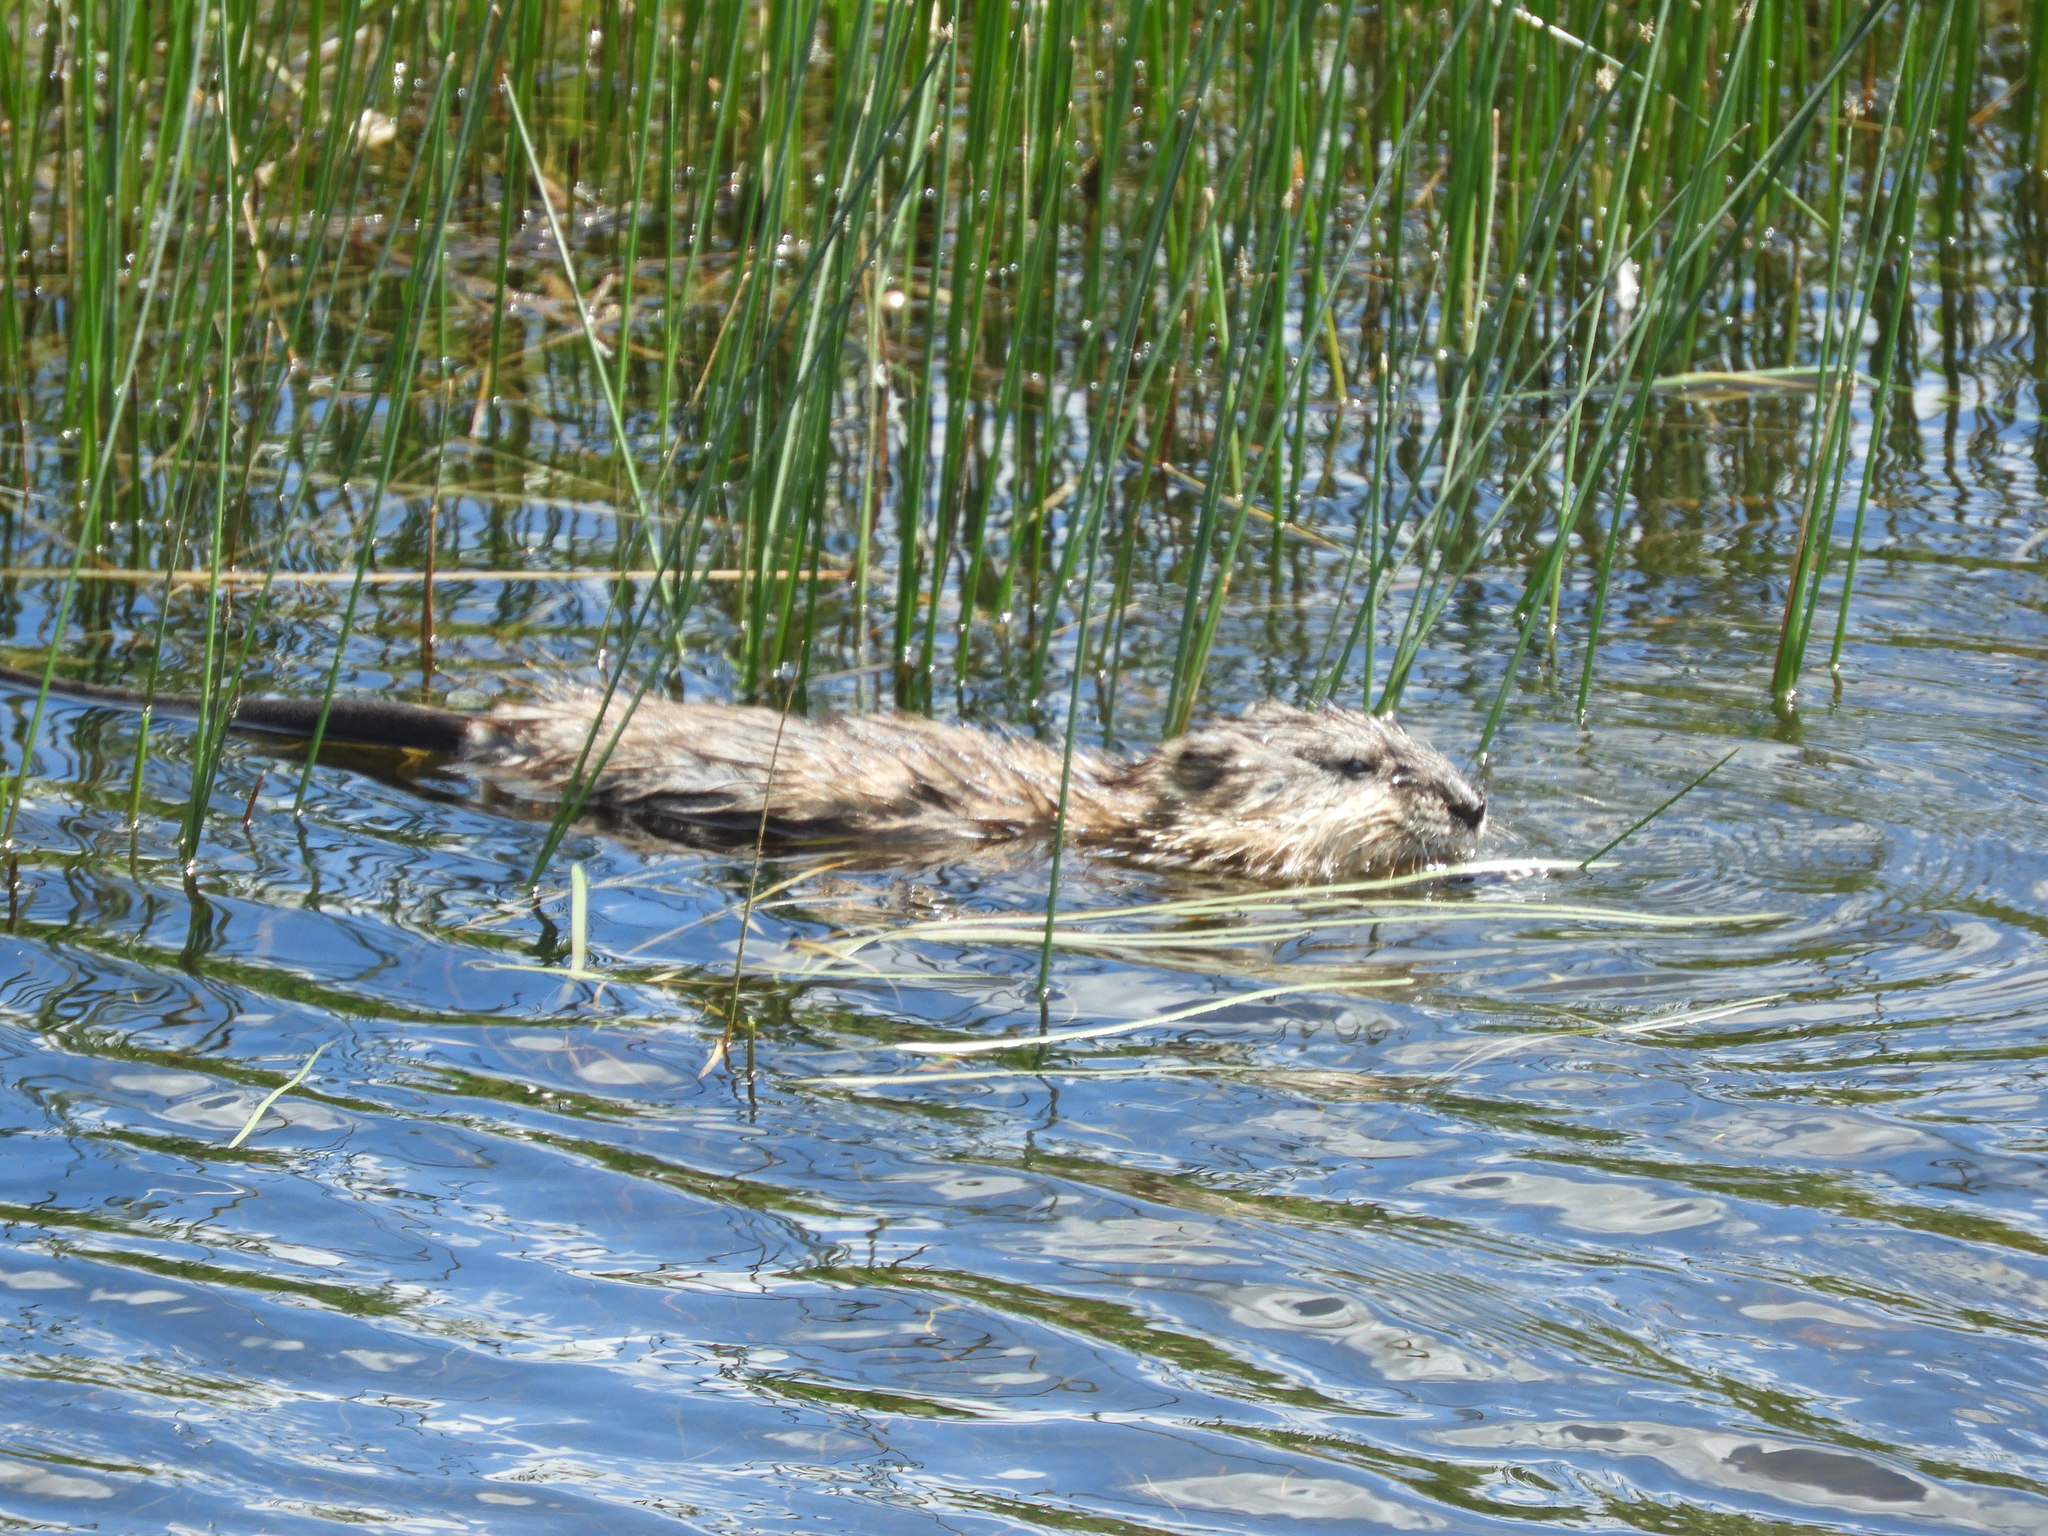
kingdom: Animalia
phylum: Chordata
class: Mammalia
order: Rodentia
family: Cricetidae
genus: Ondatra
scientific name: Ondatra zibethicus
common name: Muskrat
